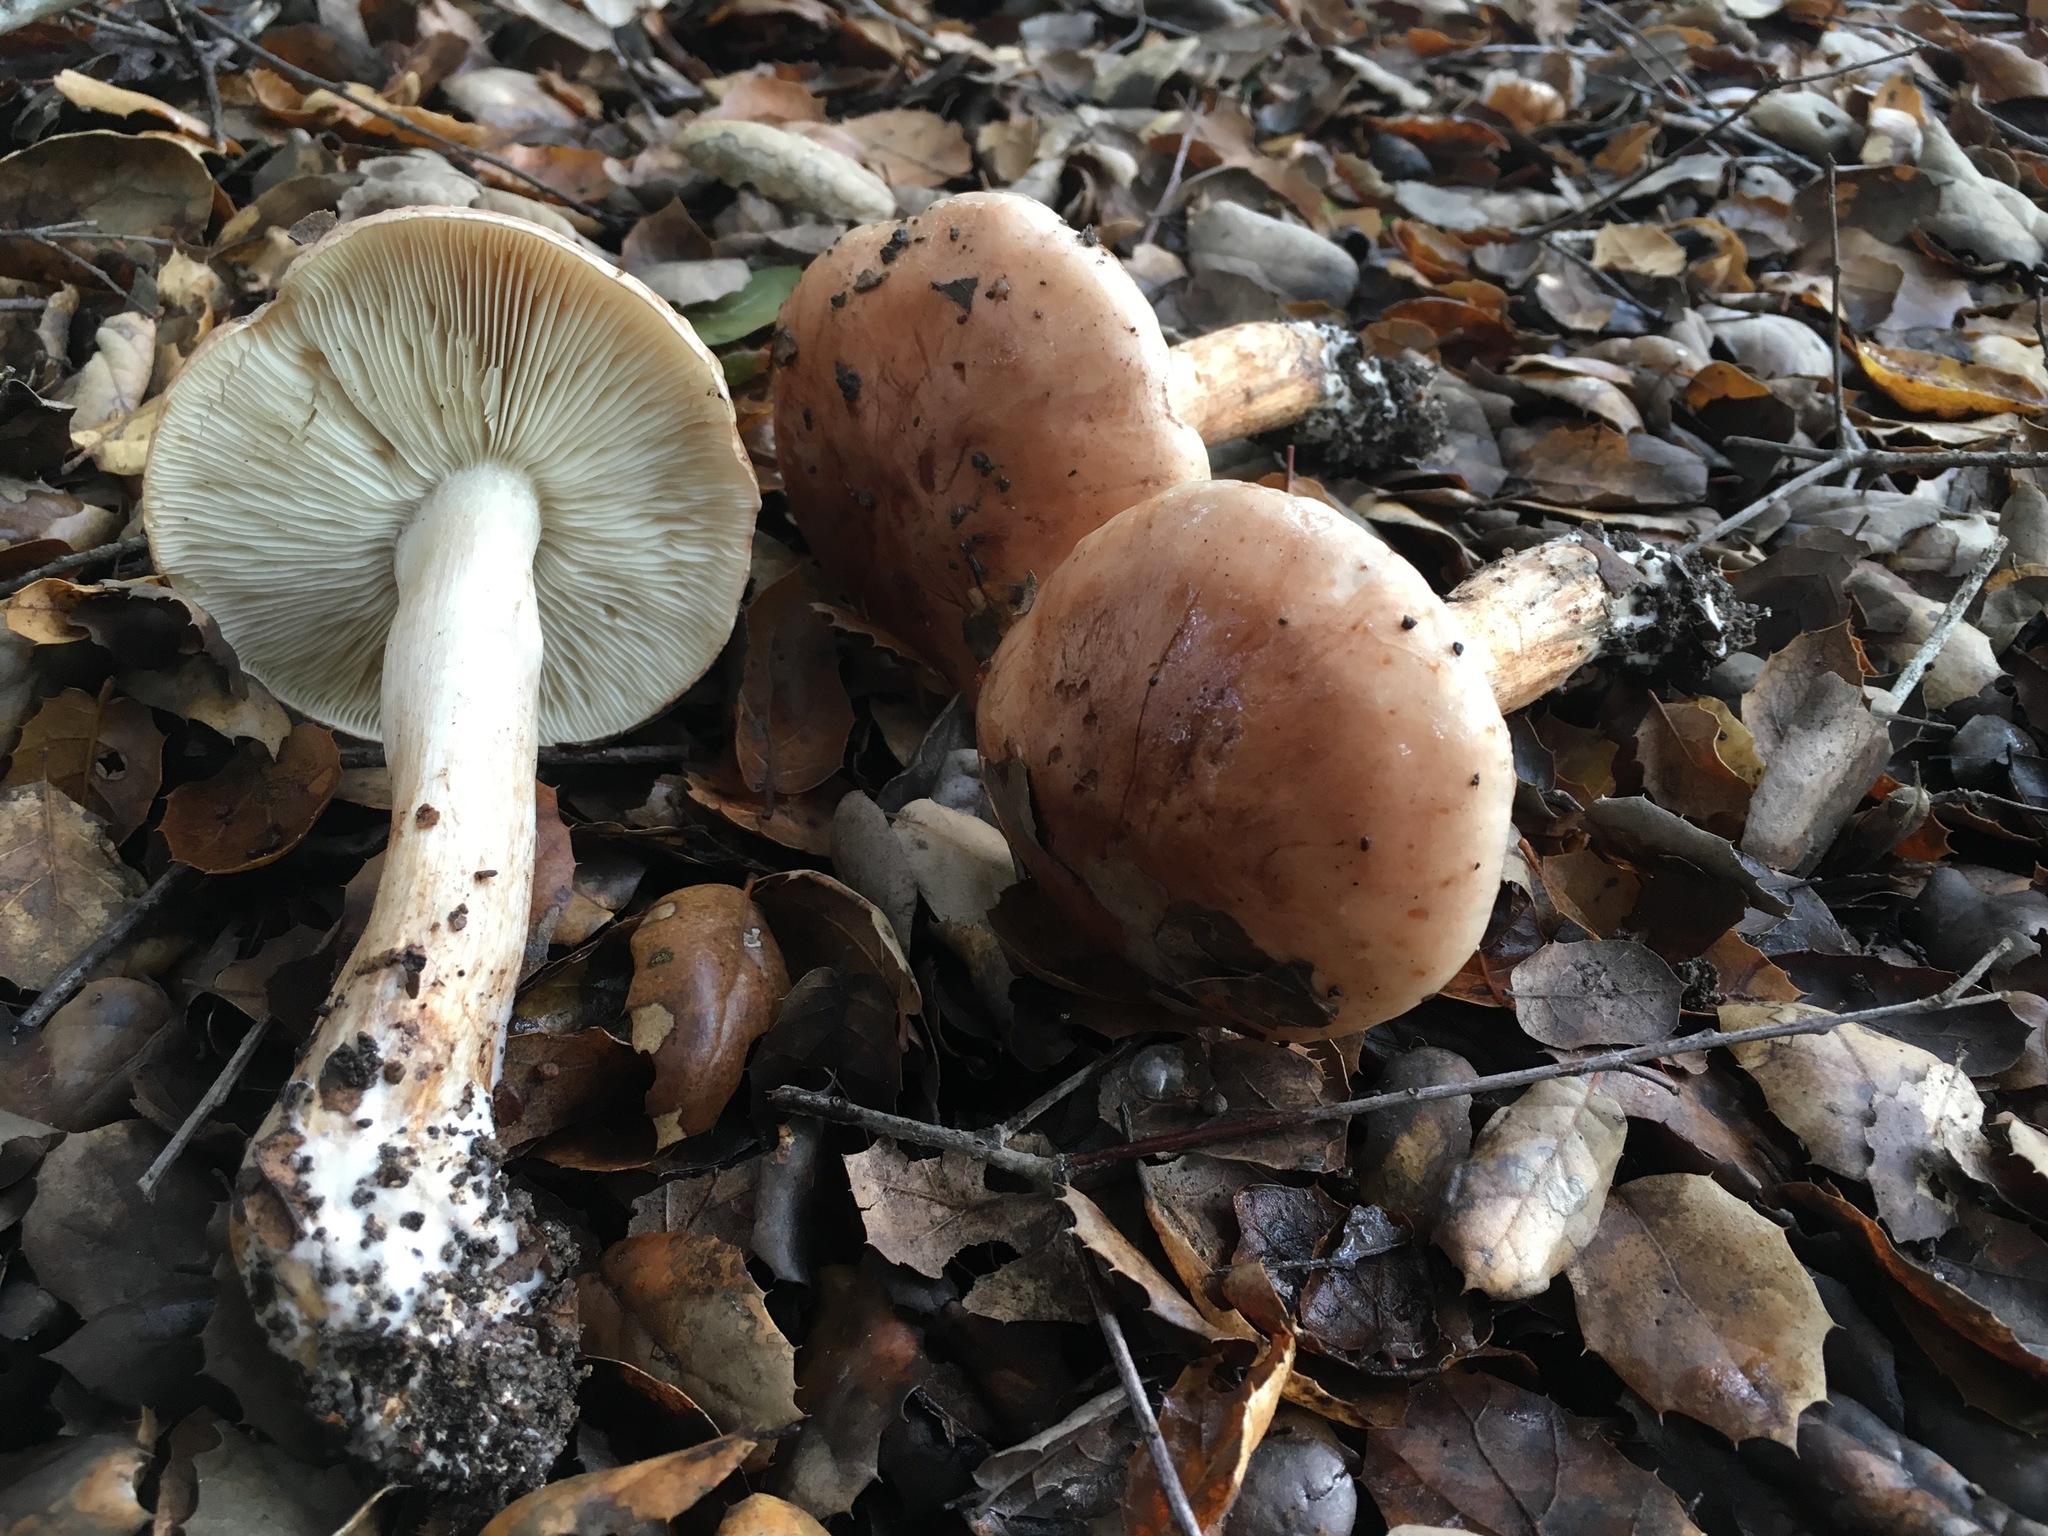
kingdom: Fungi
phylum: Basidiomycota
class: Agaricomycetes
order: Agaricales
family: Tricholomataceae
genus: Melanoleuca
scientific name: Melanoleuca dryophila
